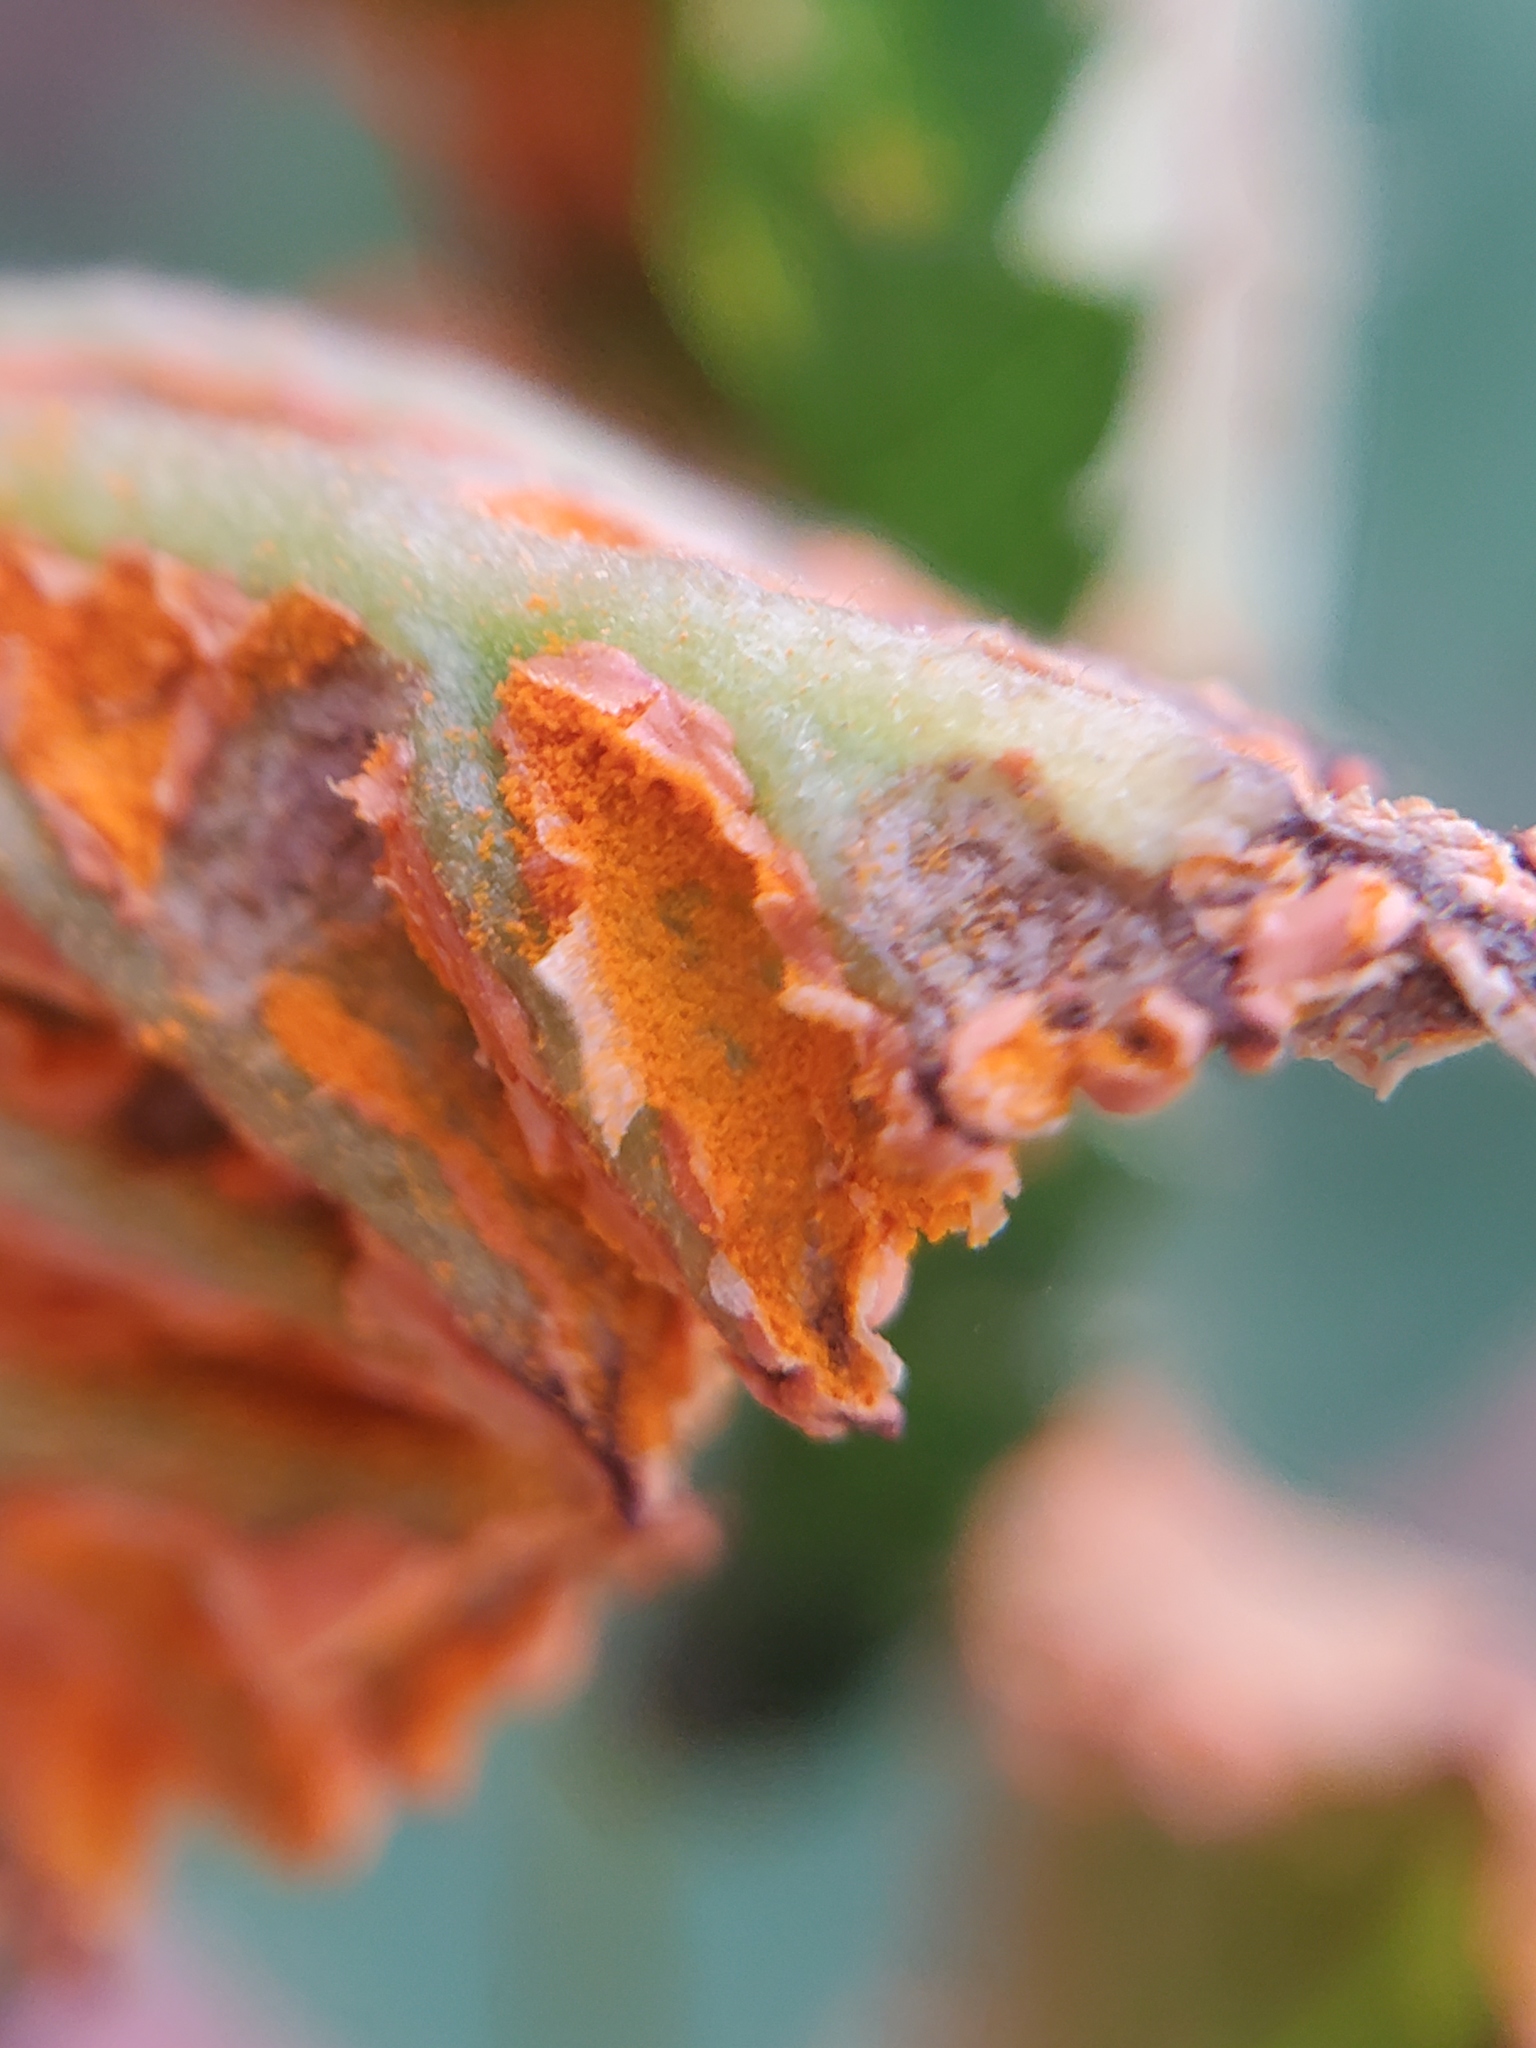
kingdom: Fungi
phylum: Basidiomycota
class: Pucciniomycetes
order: Pucciniales
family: Phragmidiaceae
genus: Arthuriomyces
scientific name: Arthuriomyces peckianus
